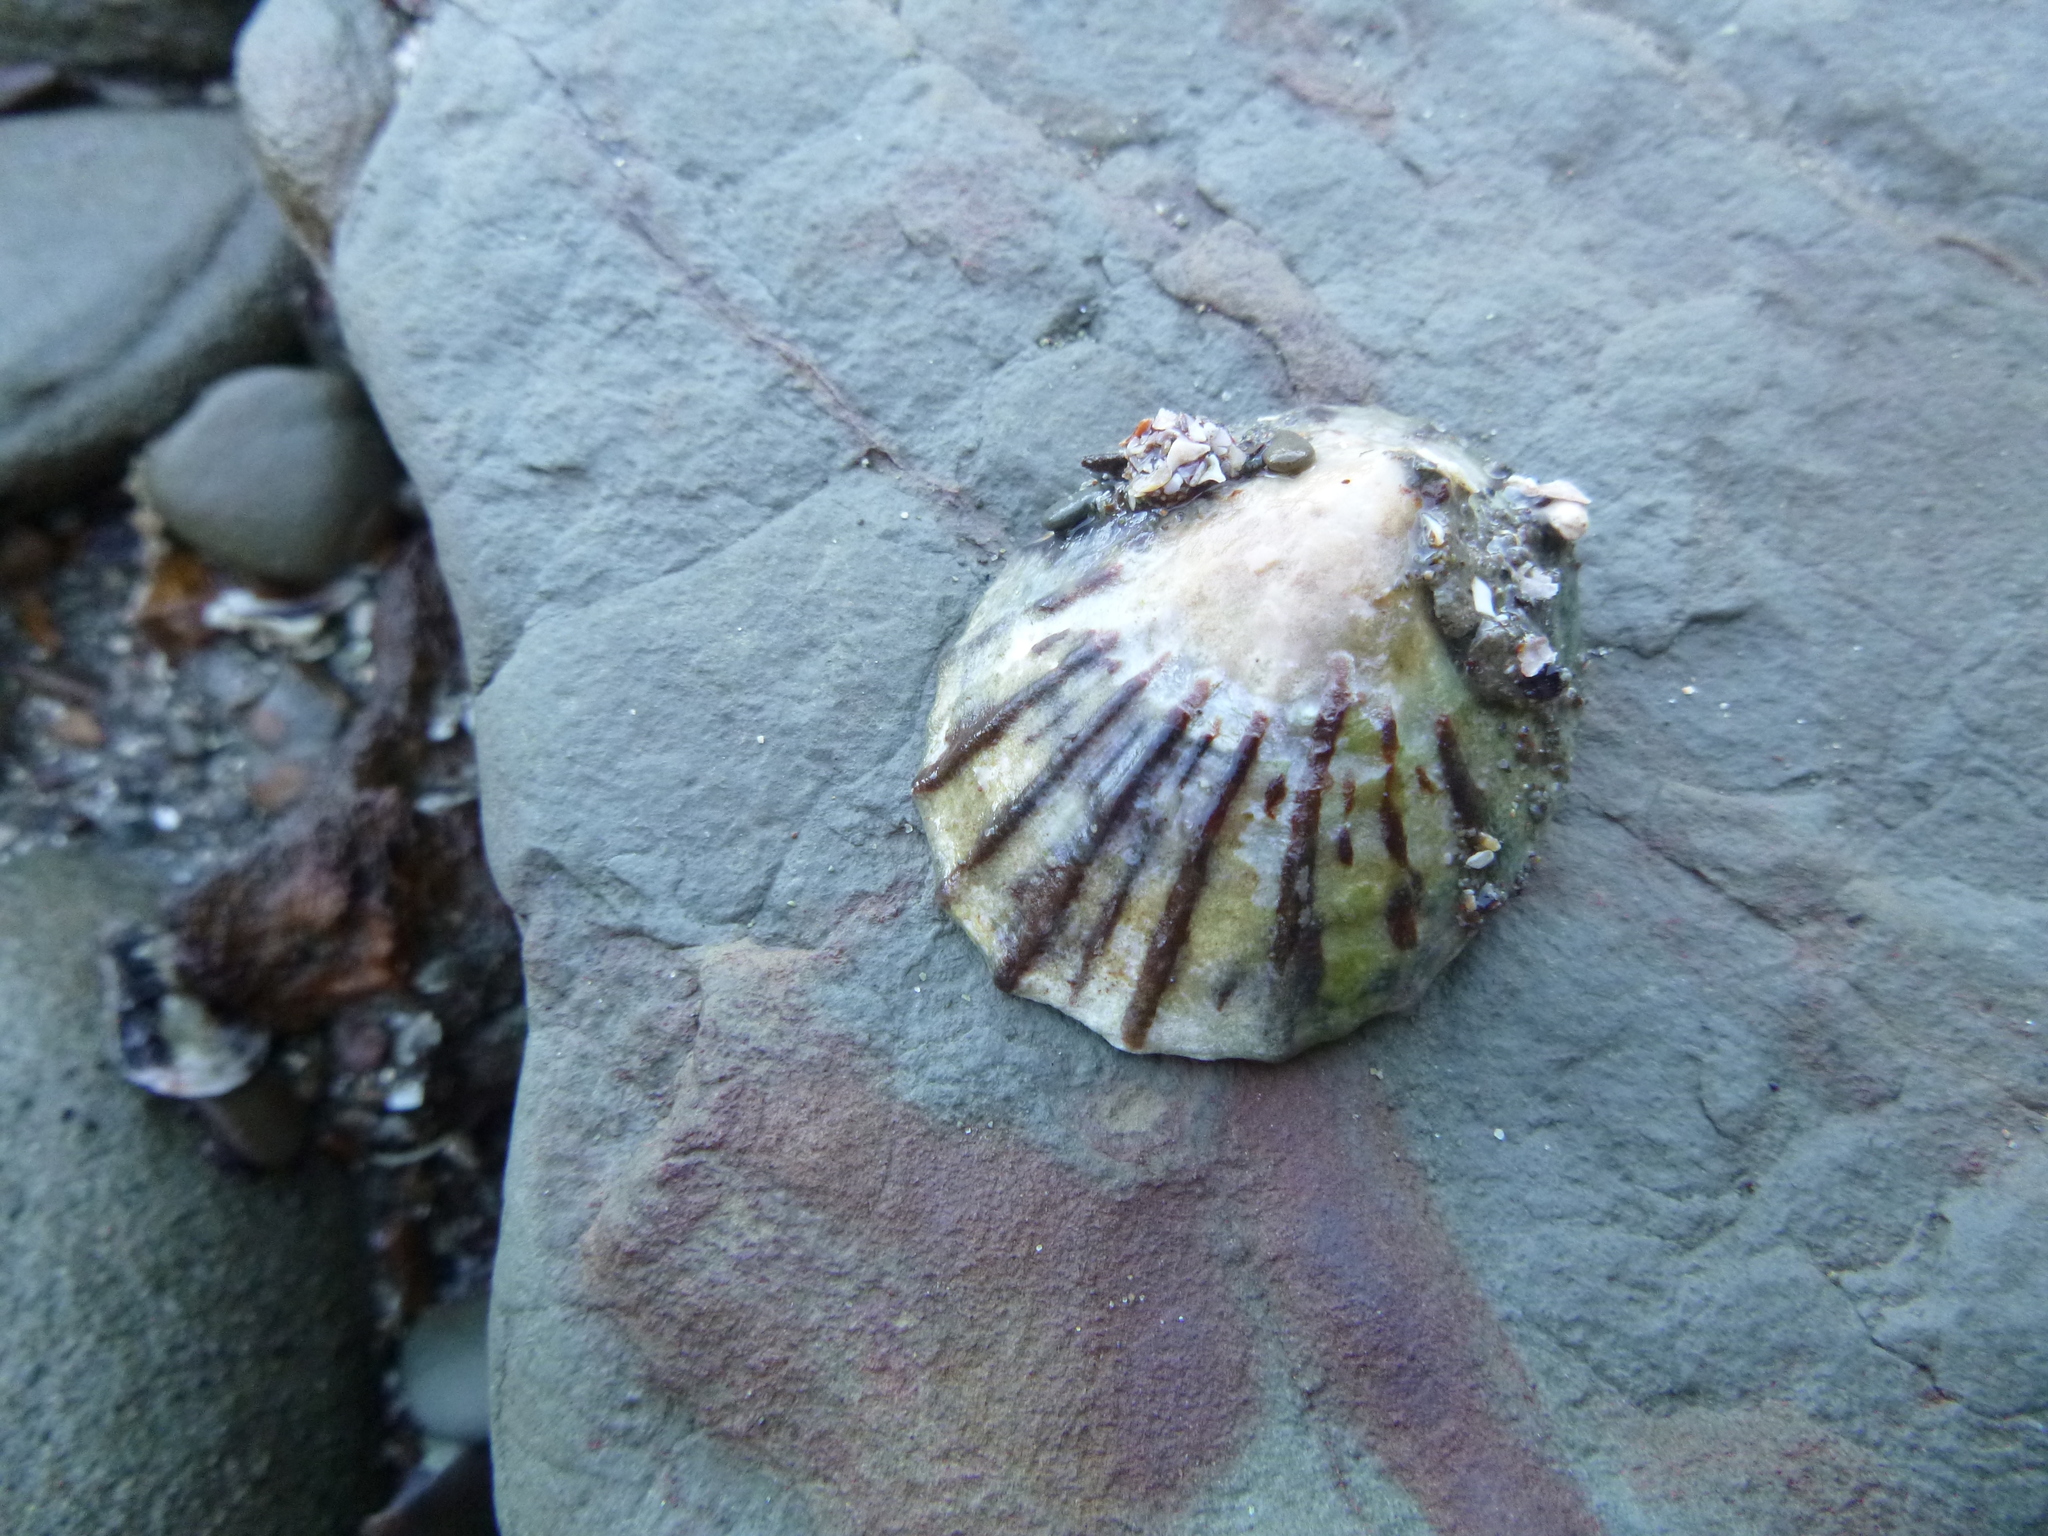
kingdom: Animalia
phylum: Mollusca
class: Gastropoda
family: Nacellidae
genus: Cellana
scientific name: Cellana radians
